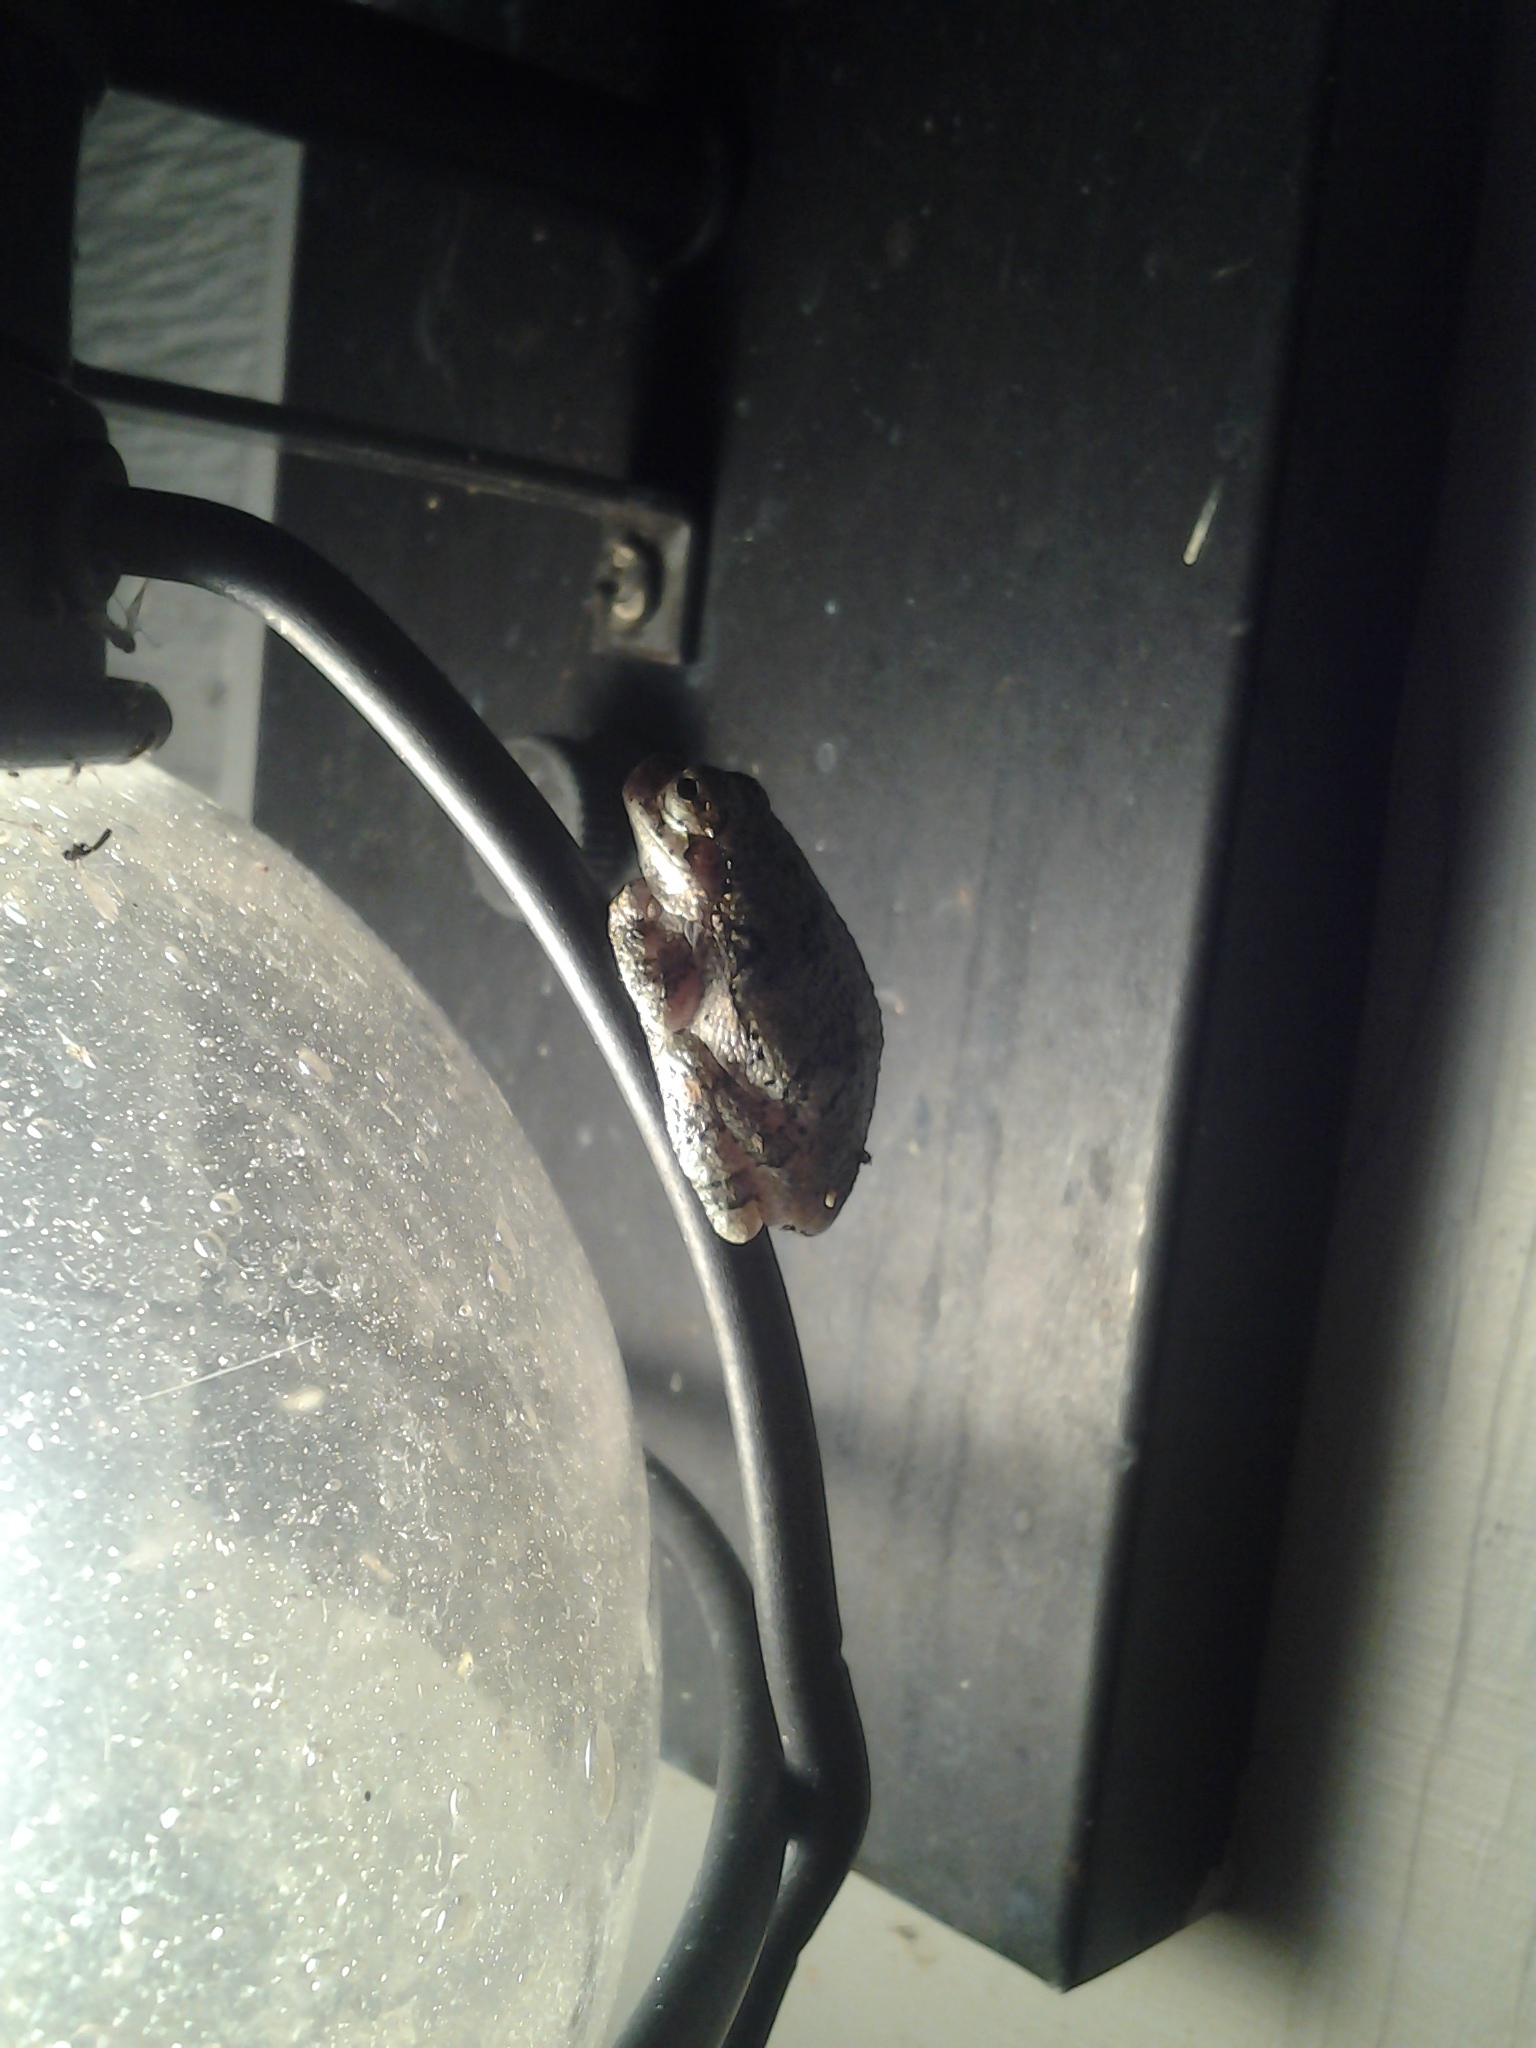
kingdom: Animalia
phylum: Chordata
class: Amphibia
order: Anura
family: Hylidae
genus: Dryophytes
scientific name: Dryophytes versicolor
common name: Gray treefrog
